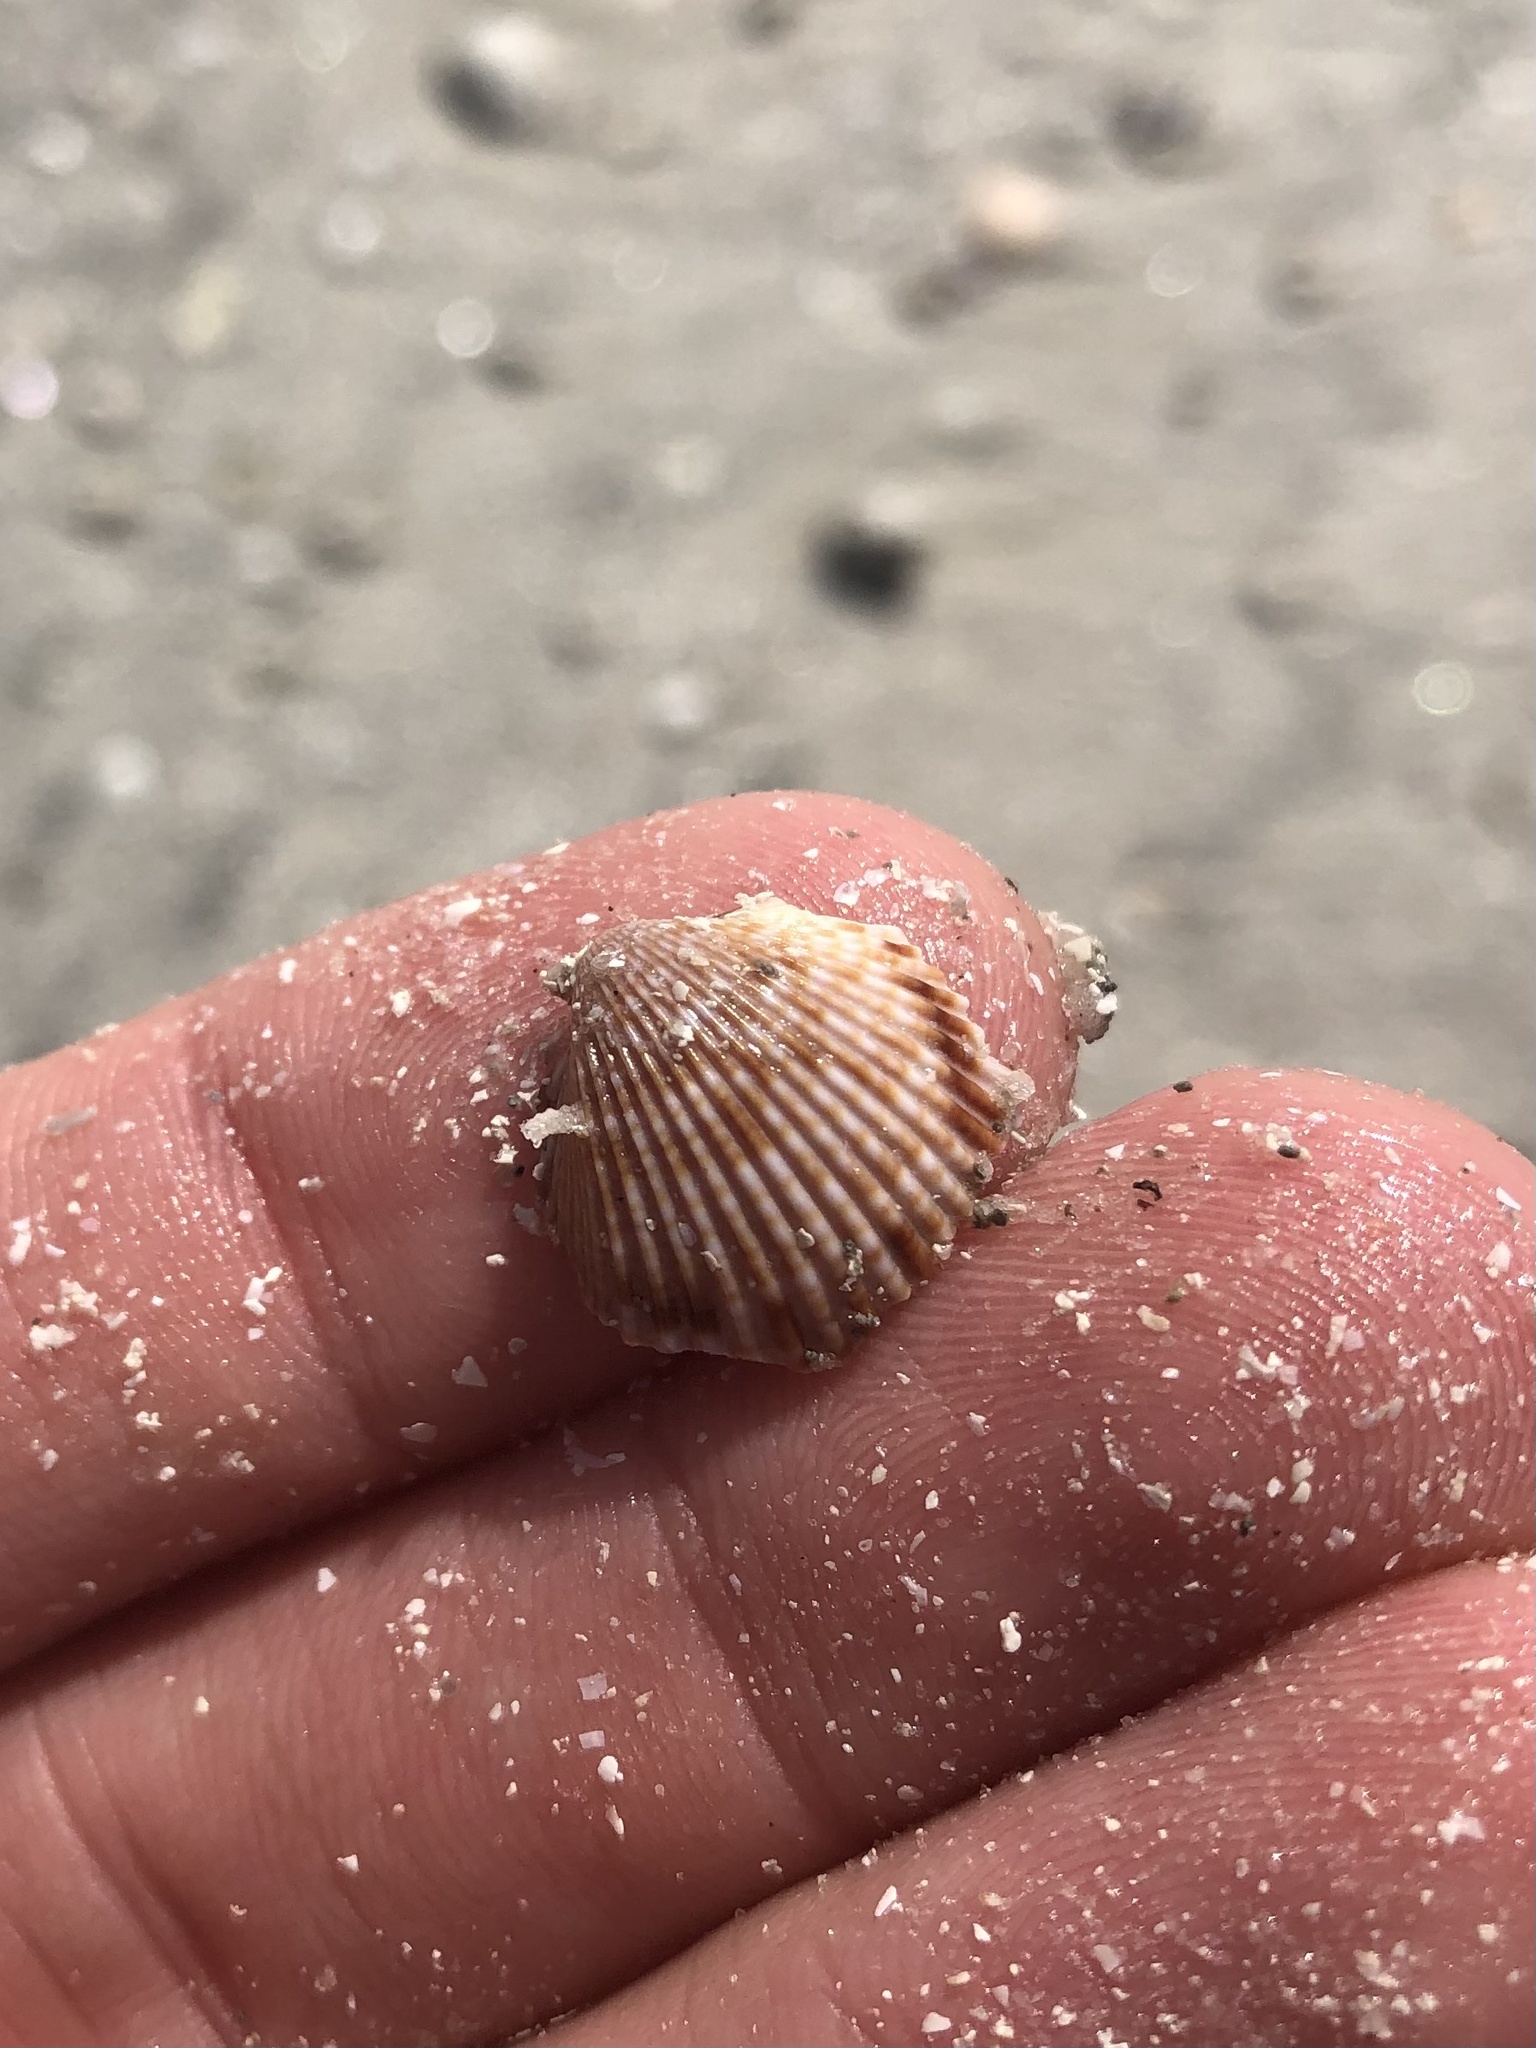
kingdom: Animalia
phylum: Mollusca
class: Bivalvia
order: Cardiida
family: Cardiidae
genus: Dinocardium
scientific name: Dinocardium robustum
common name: Atlantic giant cockle
